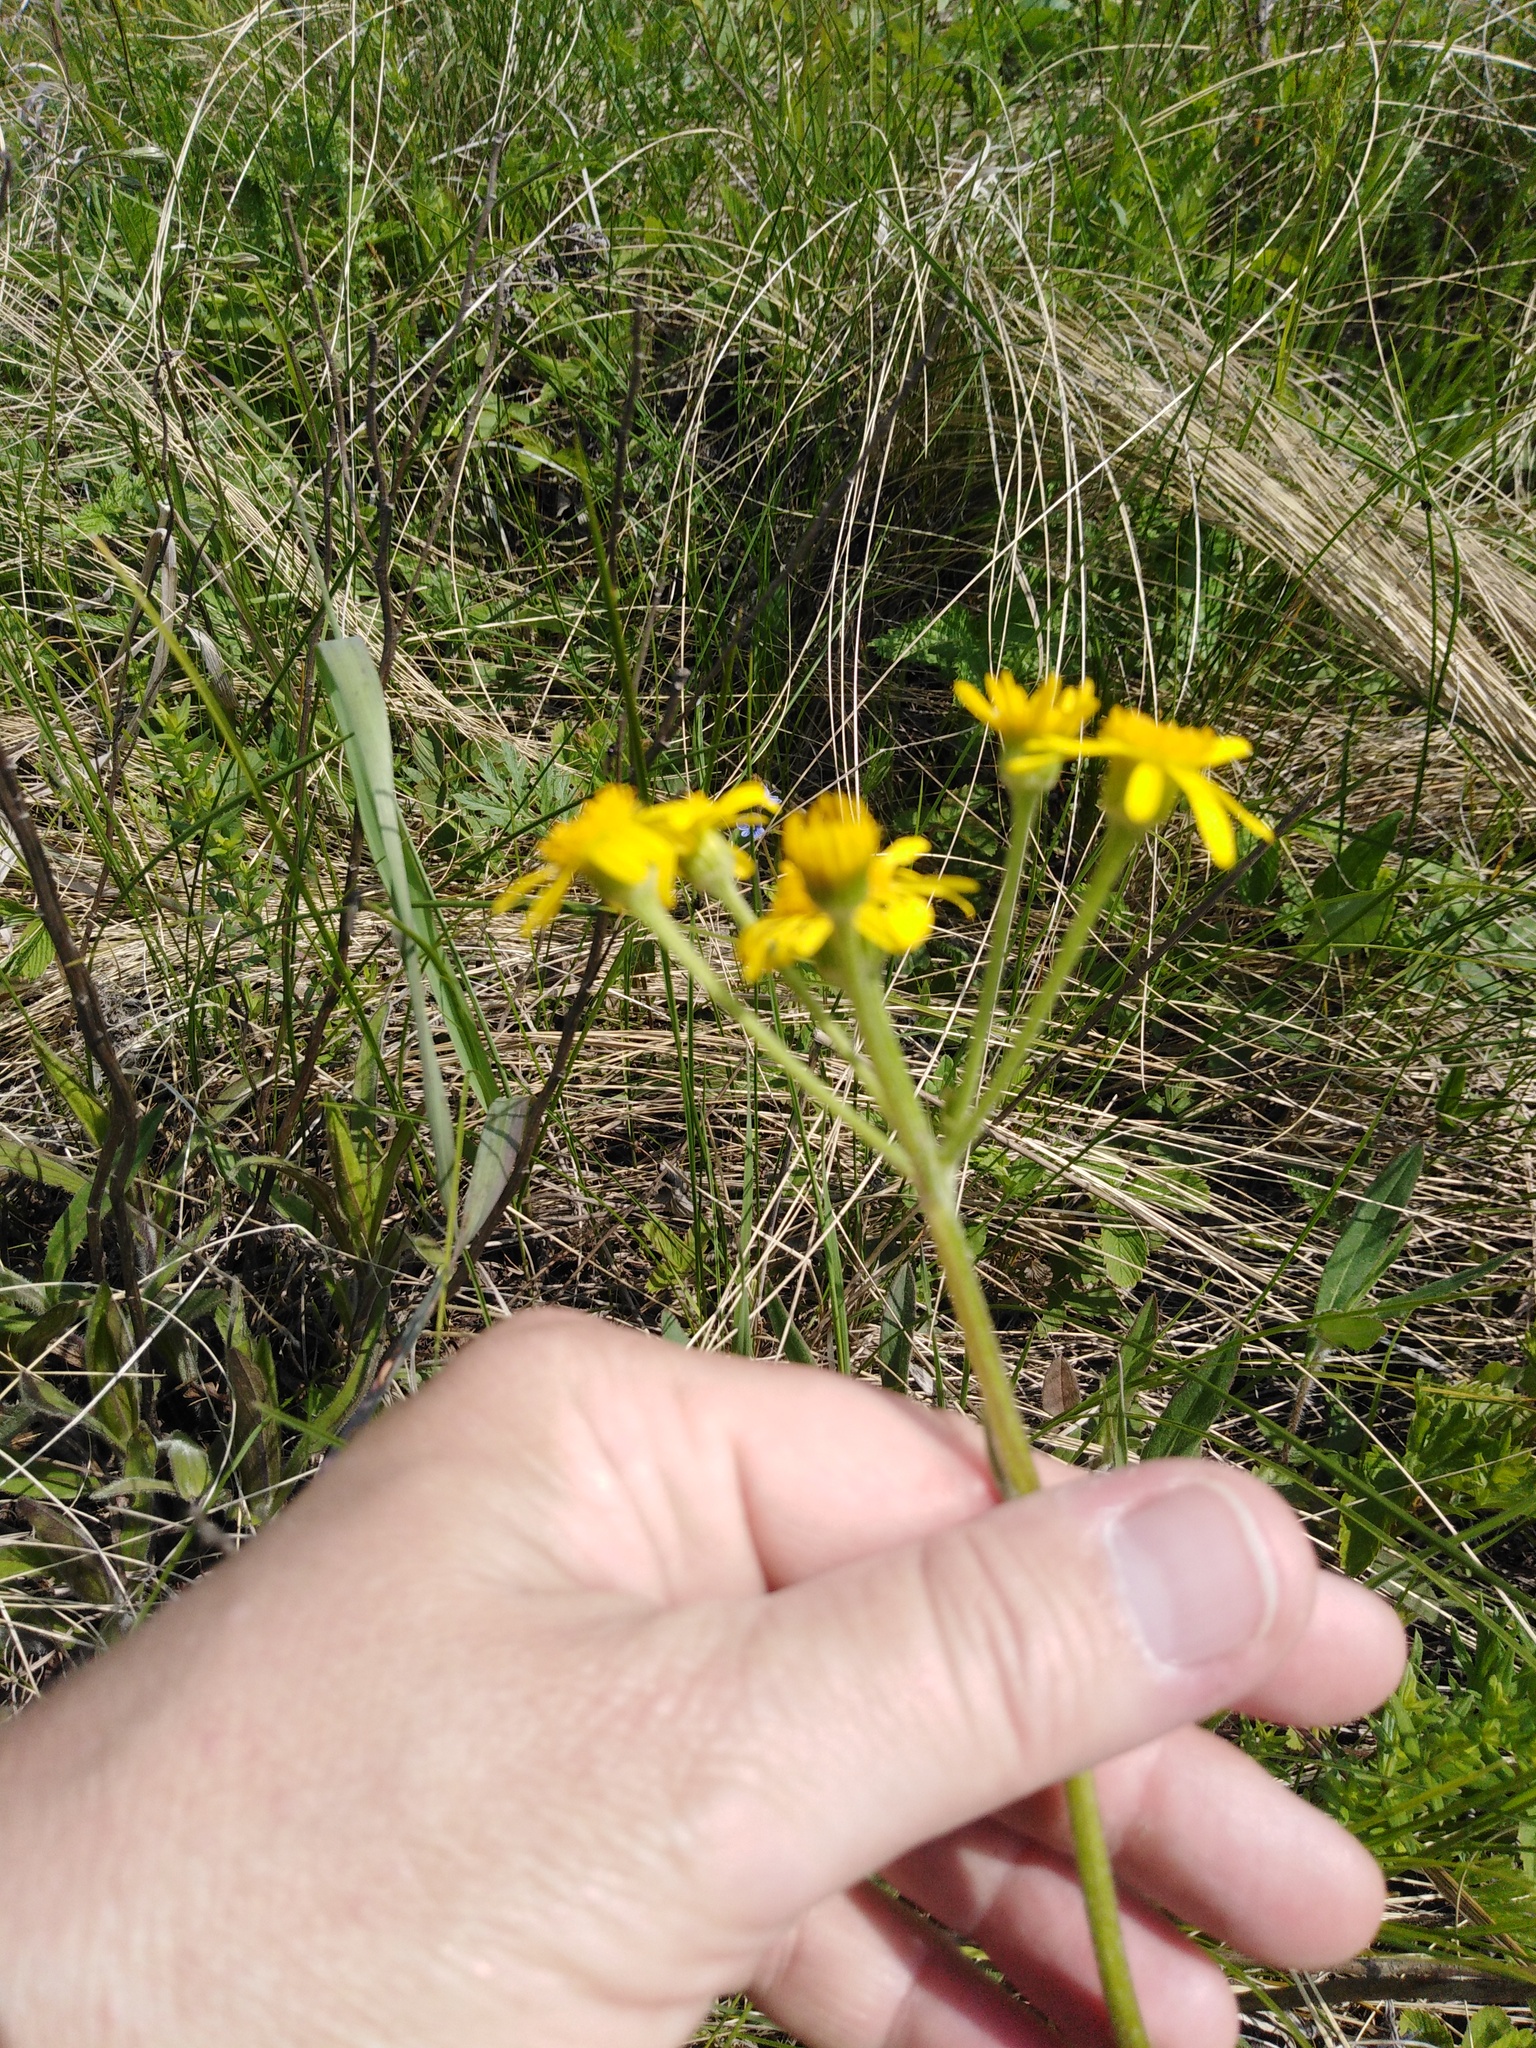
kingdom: Plantae
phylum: Tracheophyta
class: Magnoliopsida
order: Asterales
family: Asteraceae
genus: Tephroseris
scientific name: Tephroseris integrifolia
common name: Field fleawort
